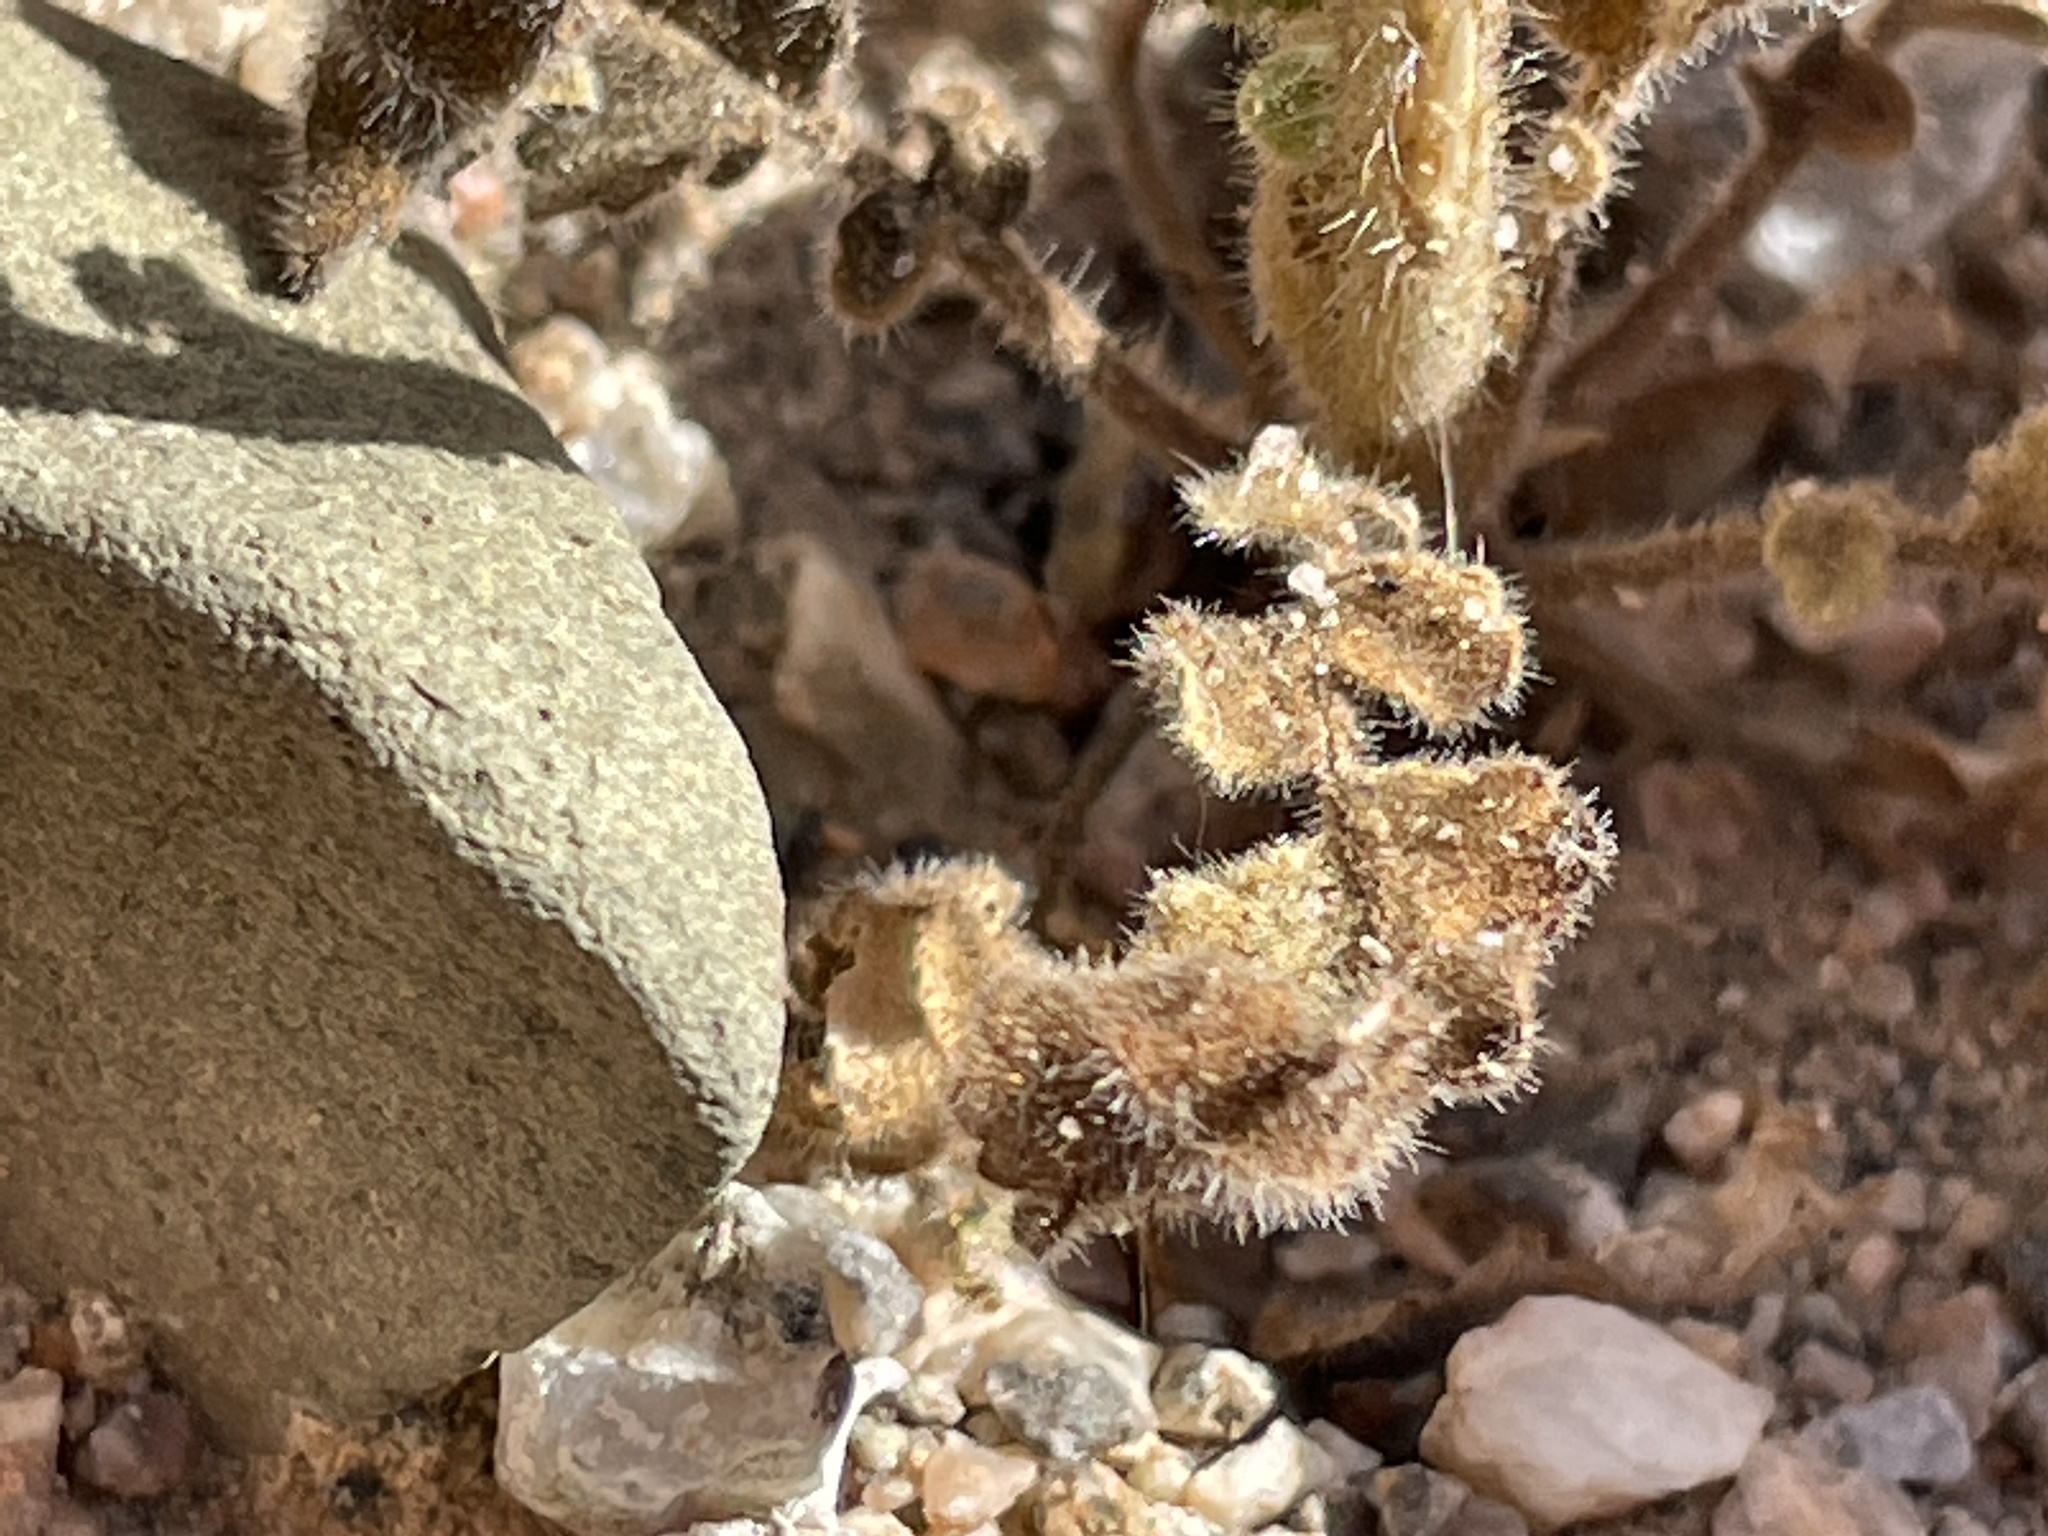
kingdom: Plantae
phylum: Tracheophyta
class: Magnoliopsida
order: Boraginales
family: Hydrophyllaceae
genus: Phacelia
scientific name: Phacelia crenulata
